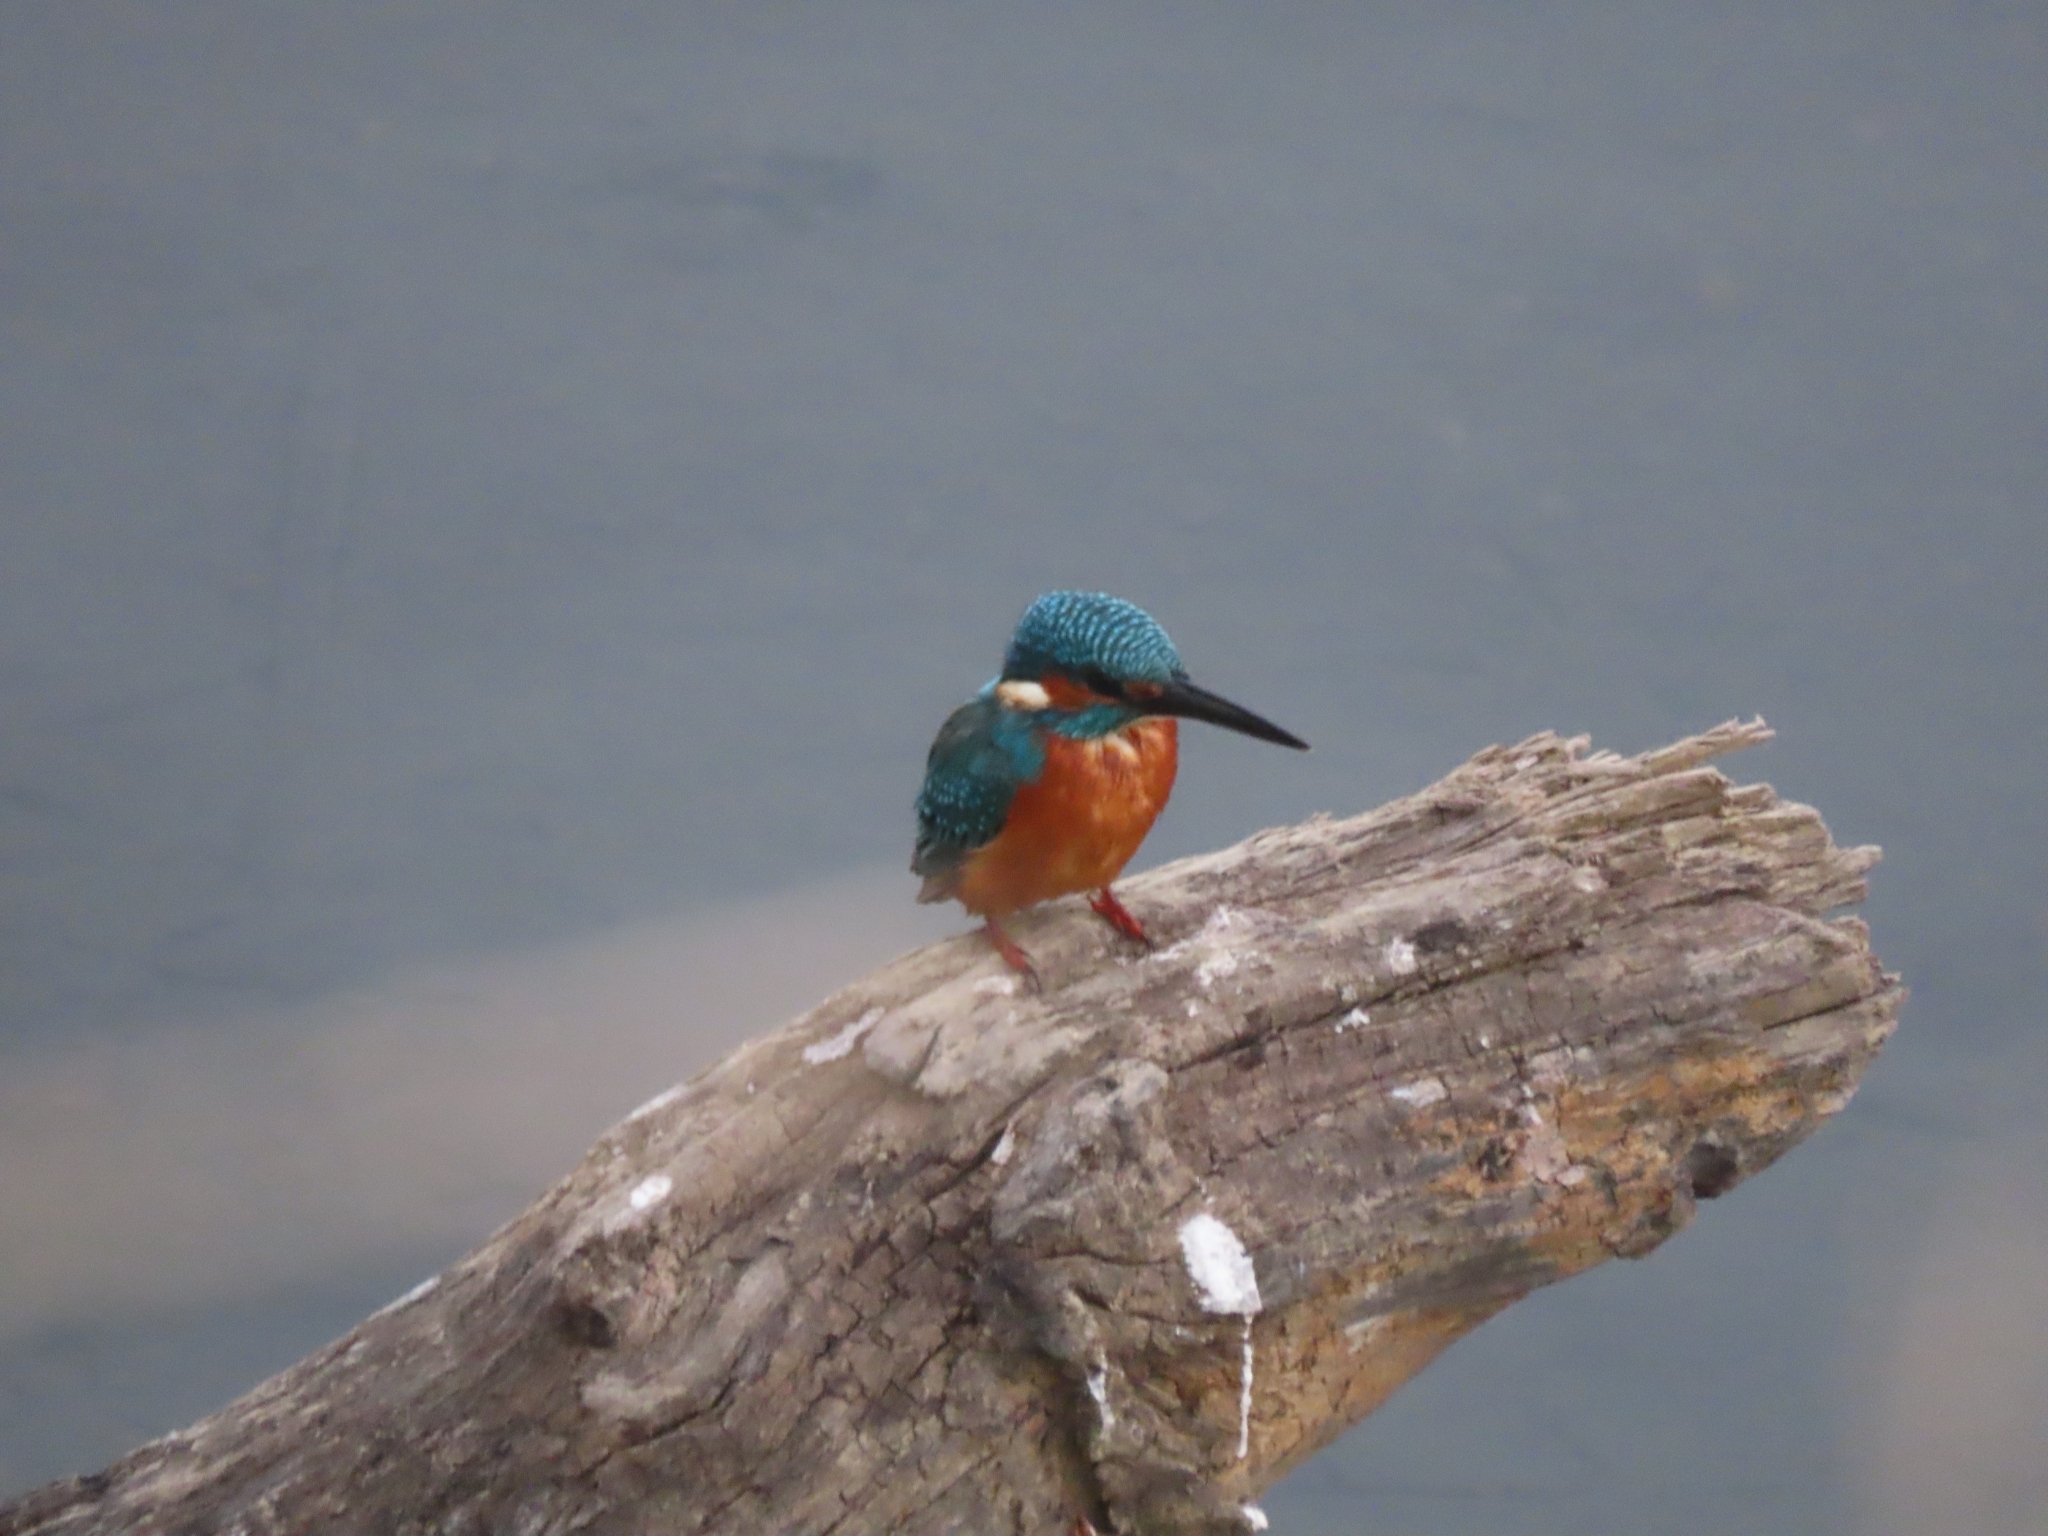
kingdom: Animalia
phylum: Chordata
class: Aves
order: Coraciiformes
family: Alcedinidae
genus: Alcedo
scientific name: Alcedo atthis
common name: Common kingfisher
